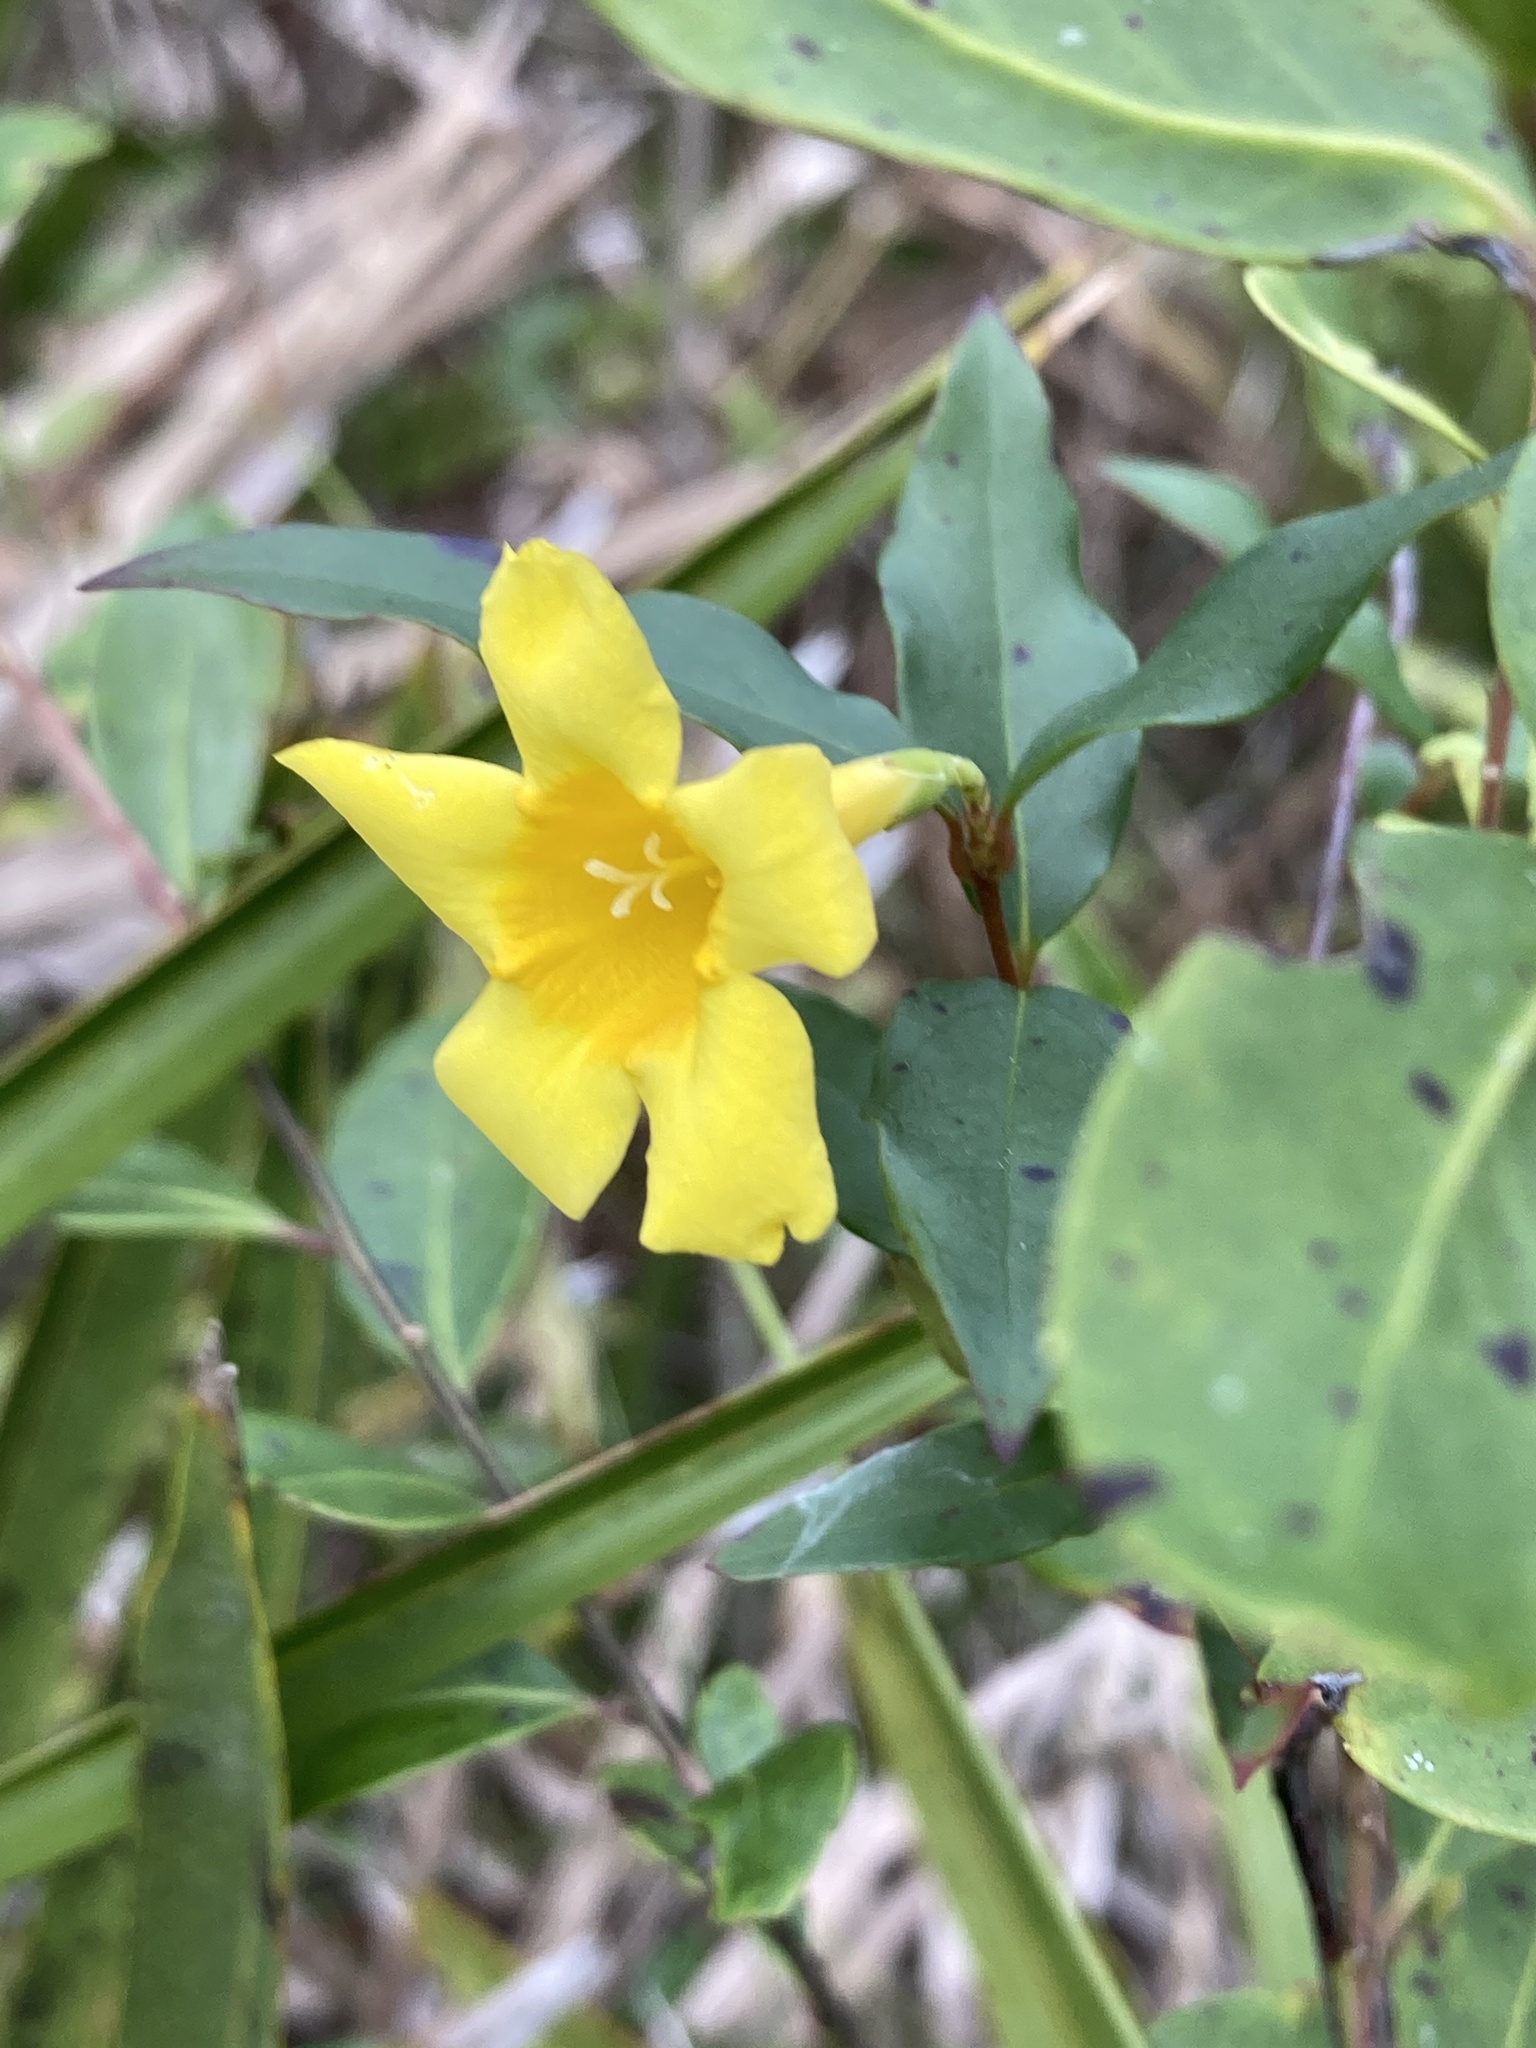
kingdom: Plantae
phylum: Tracheophyta
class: Magnoliopsida
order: Gentianales
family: Gelsemiaceae
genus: Gelsemium
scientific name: Gelsemium sempervirens
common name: Carolina-jasmine
